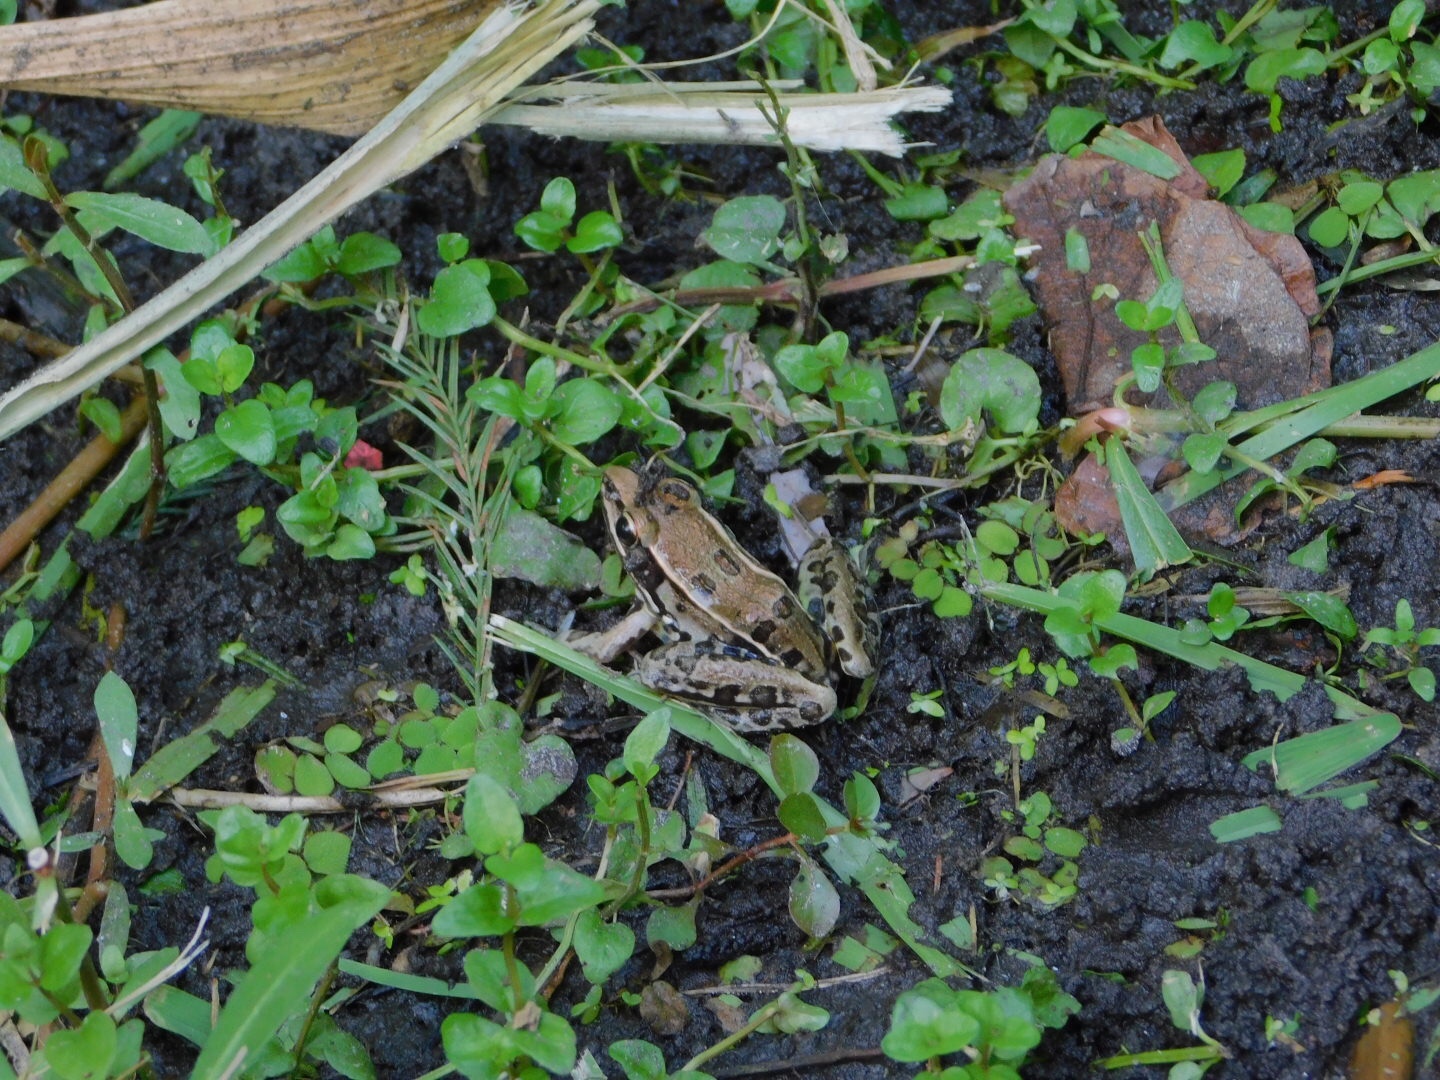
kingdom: Animalia
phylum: Chordata
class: Amphibia
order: Anura
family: Ranidae
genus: Lithobates
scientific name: Lithobates sphenocephalus
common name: Southern leopard frog
